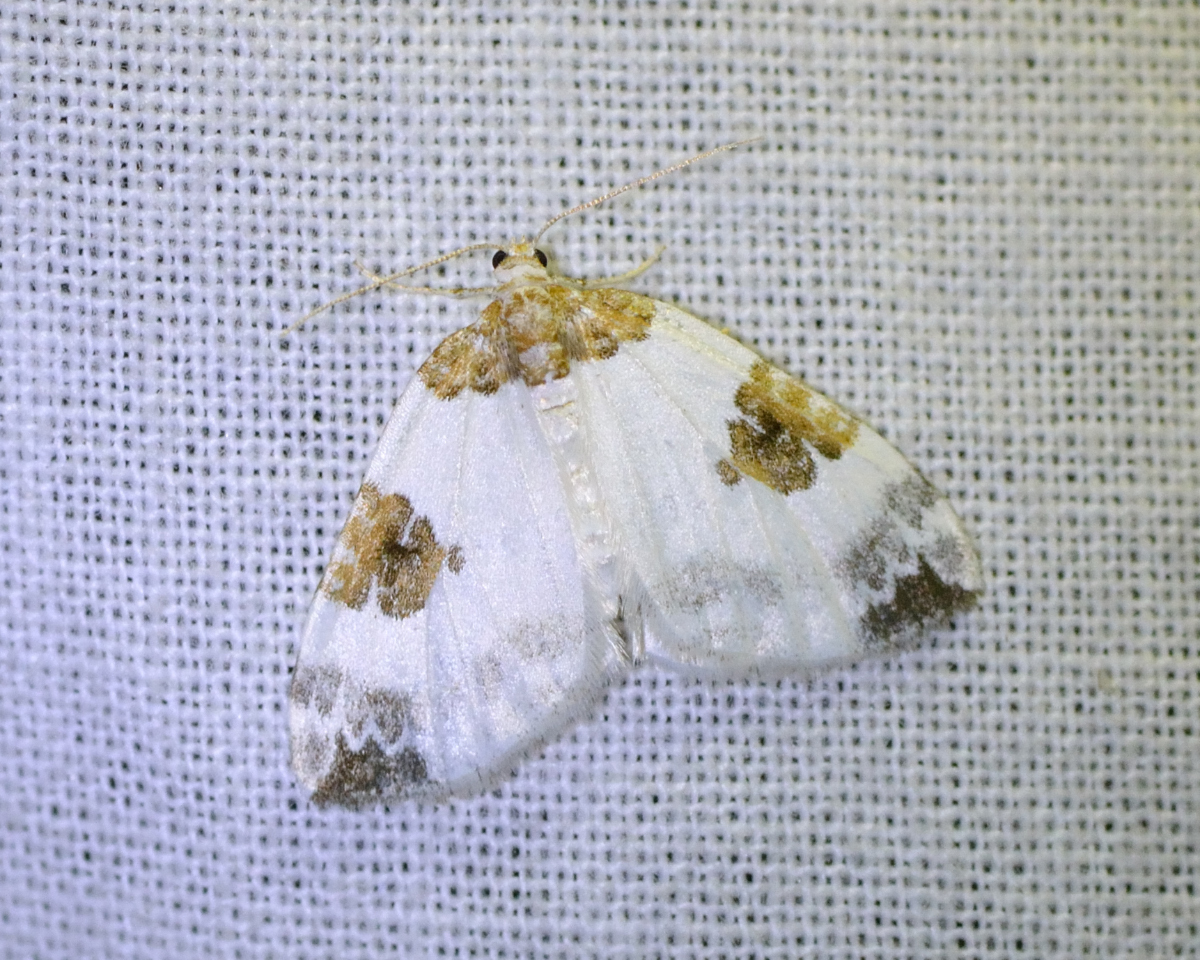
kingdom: Animalia
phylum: Arthropoda
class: Insecta
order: Lepidoptera
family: Geometridae
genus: Plemyria
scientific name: Plemyria rubiginata
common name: Blue-bordered carpet
